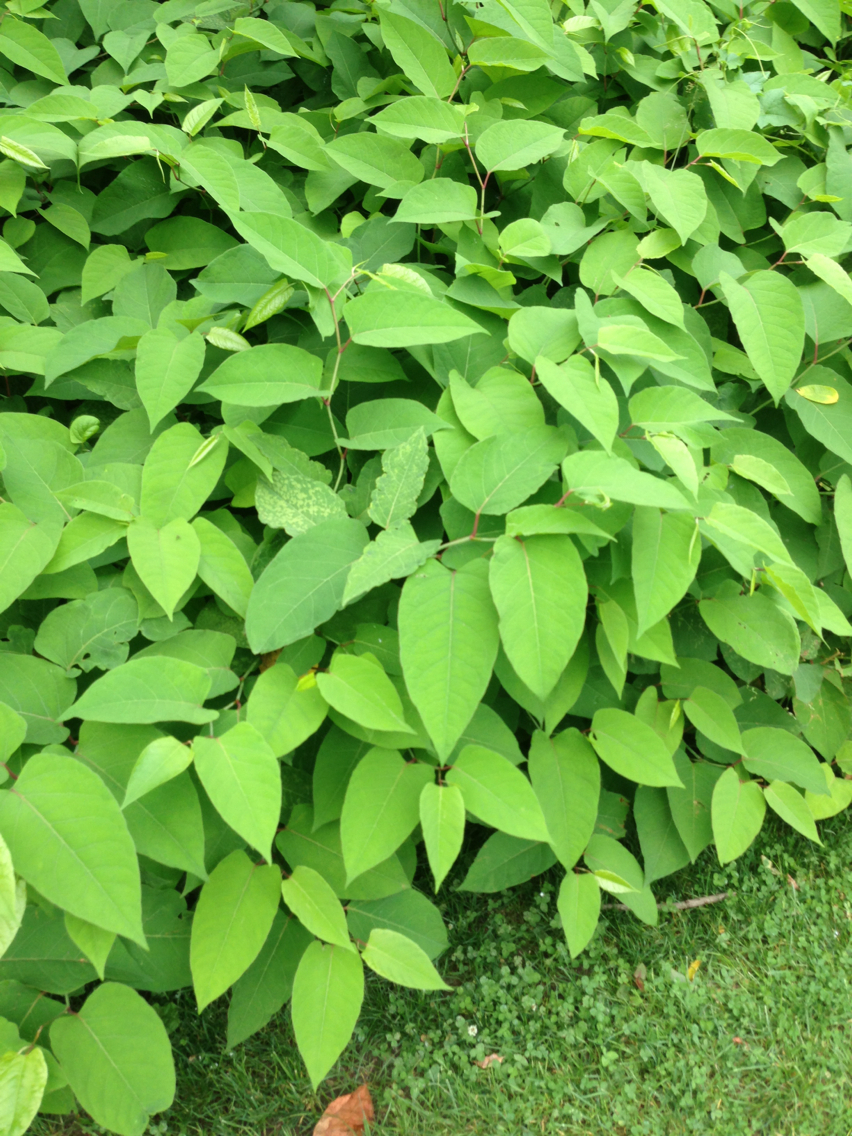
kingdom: Plantae
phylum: Tracheophyta
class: Magnoliopsida
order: Caryophyllales
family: Polygonaceae
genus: Reynoutria
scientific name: Reynoutria sachalinensis
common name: Giant knotweed
